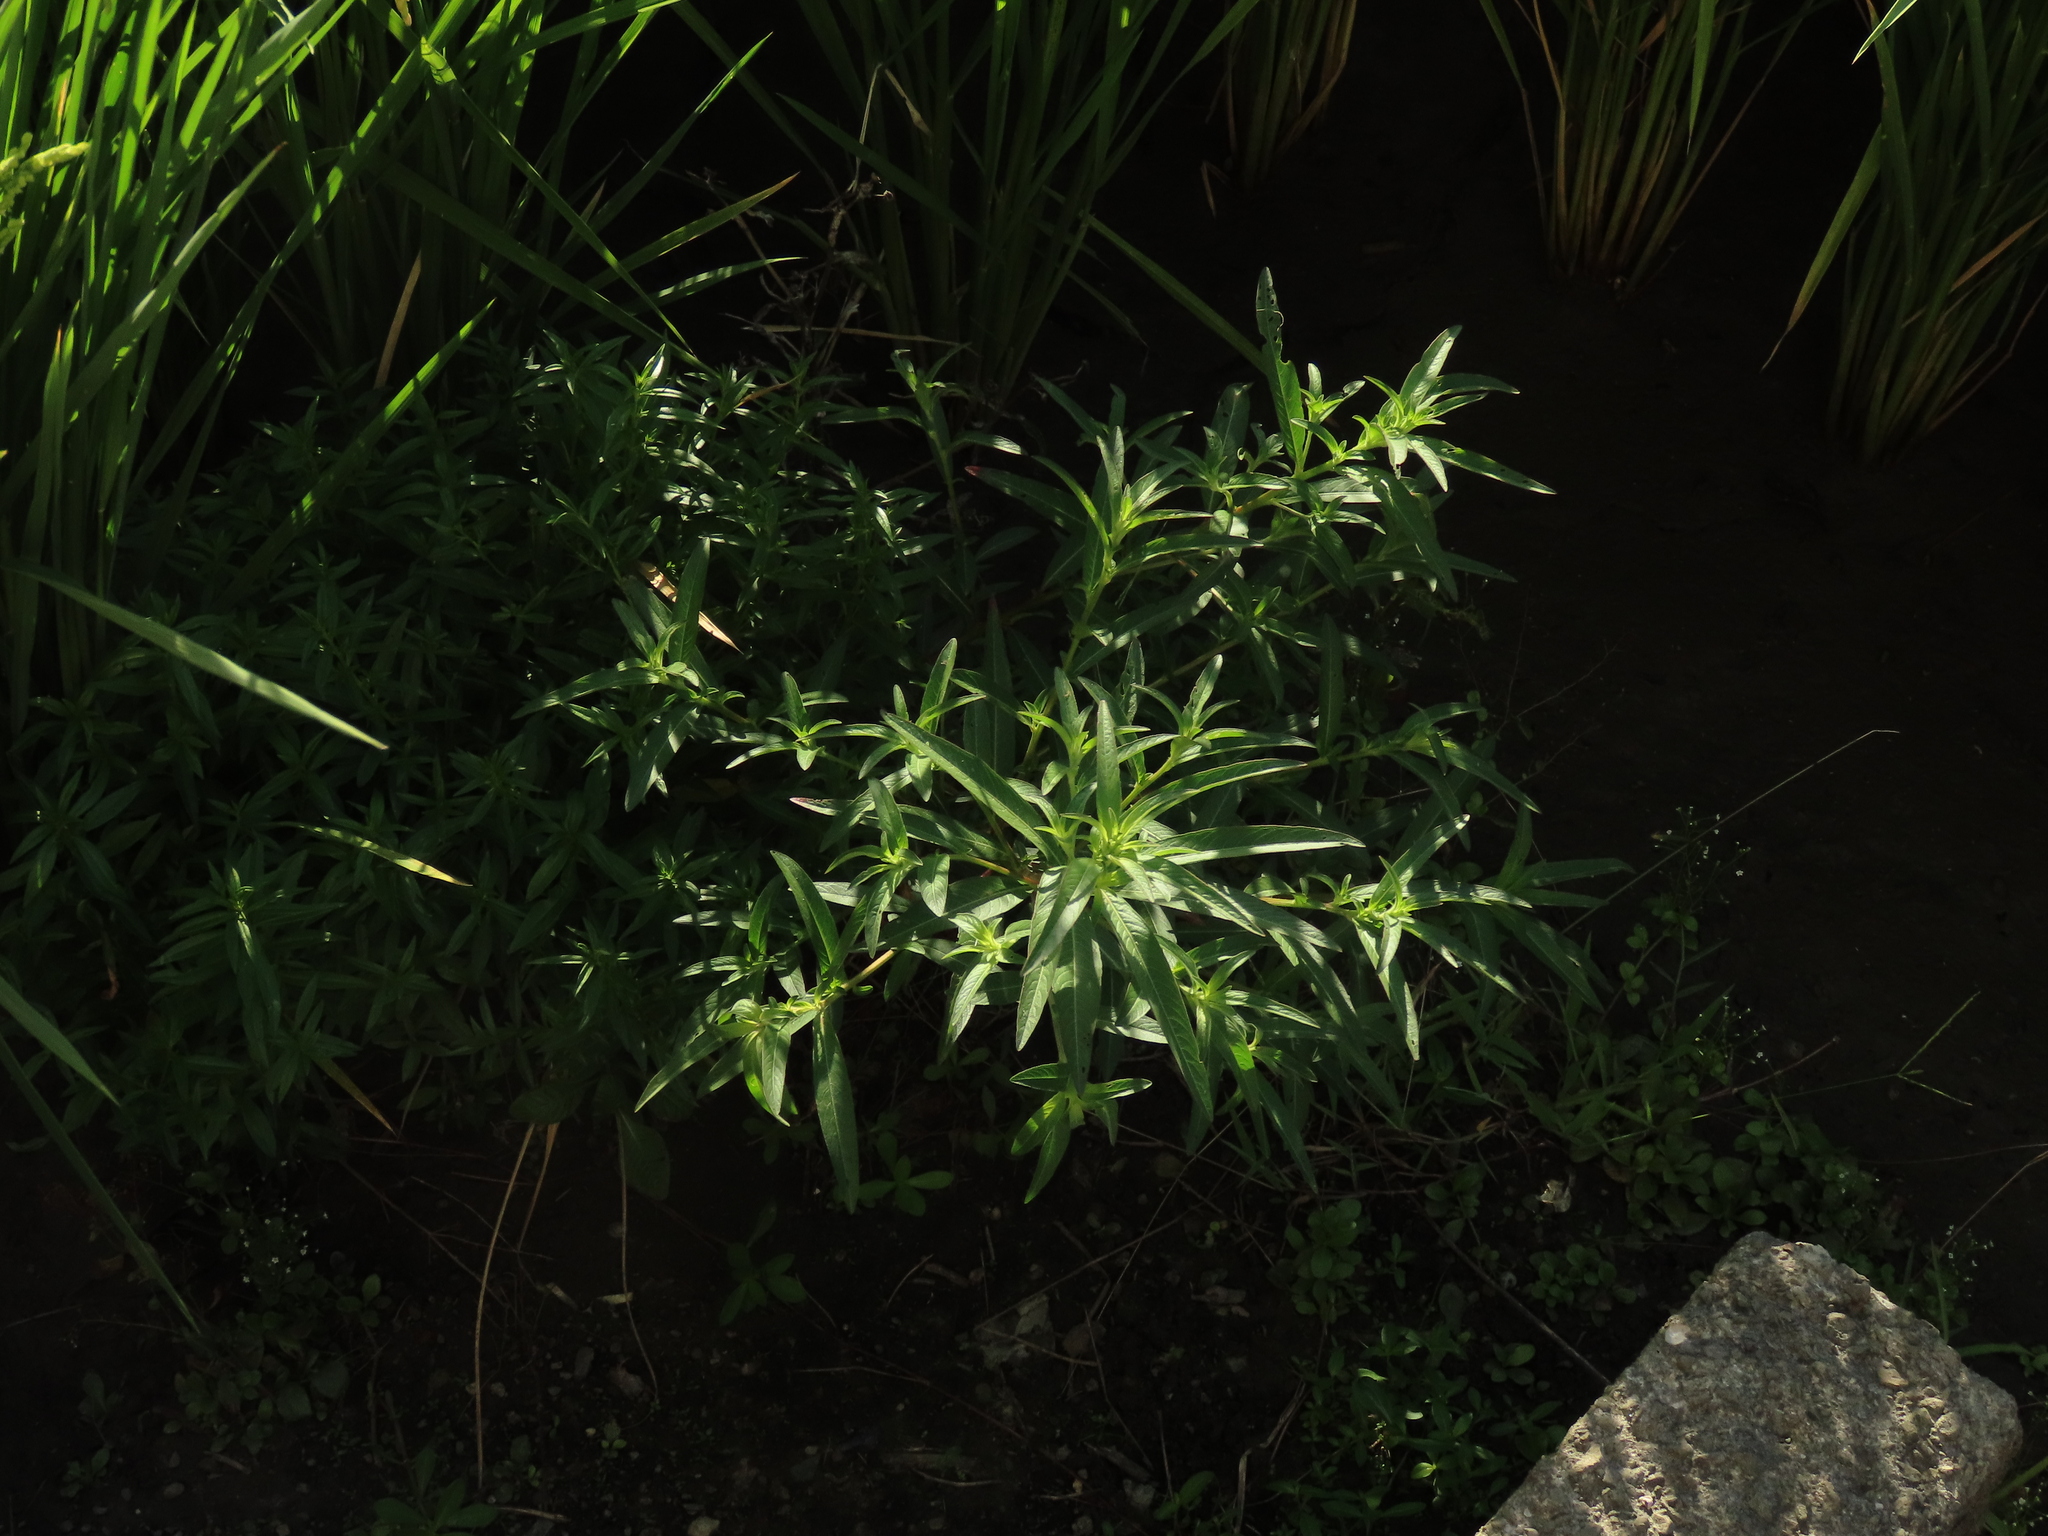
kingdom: Plantae
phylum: Tracheophyta
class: Magnoliopsida
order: Myrtales
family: Onagraceae
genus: Ludwigia
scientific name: Ludwigia octovalvis
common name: Water-primrose
